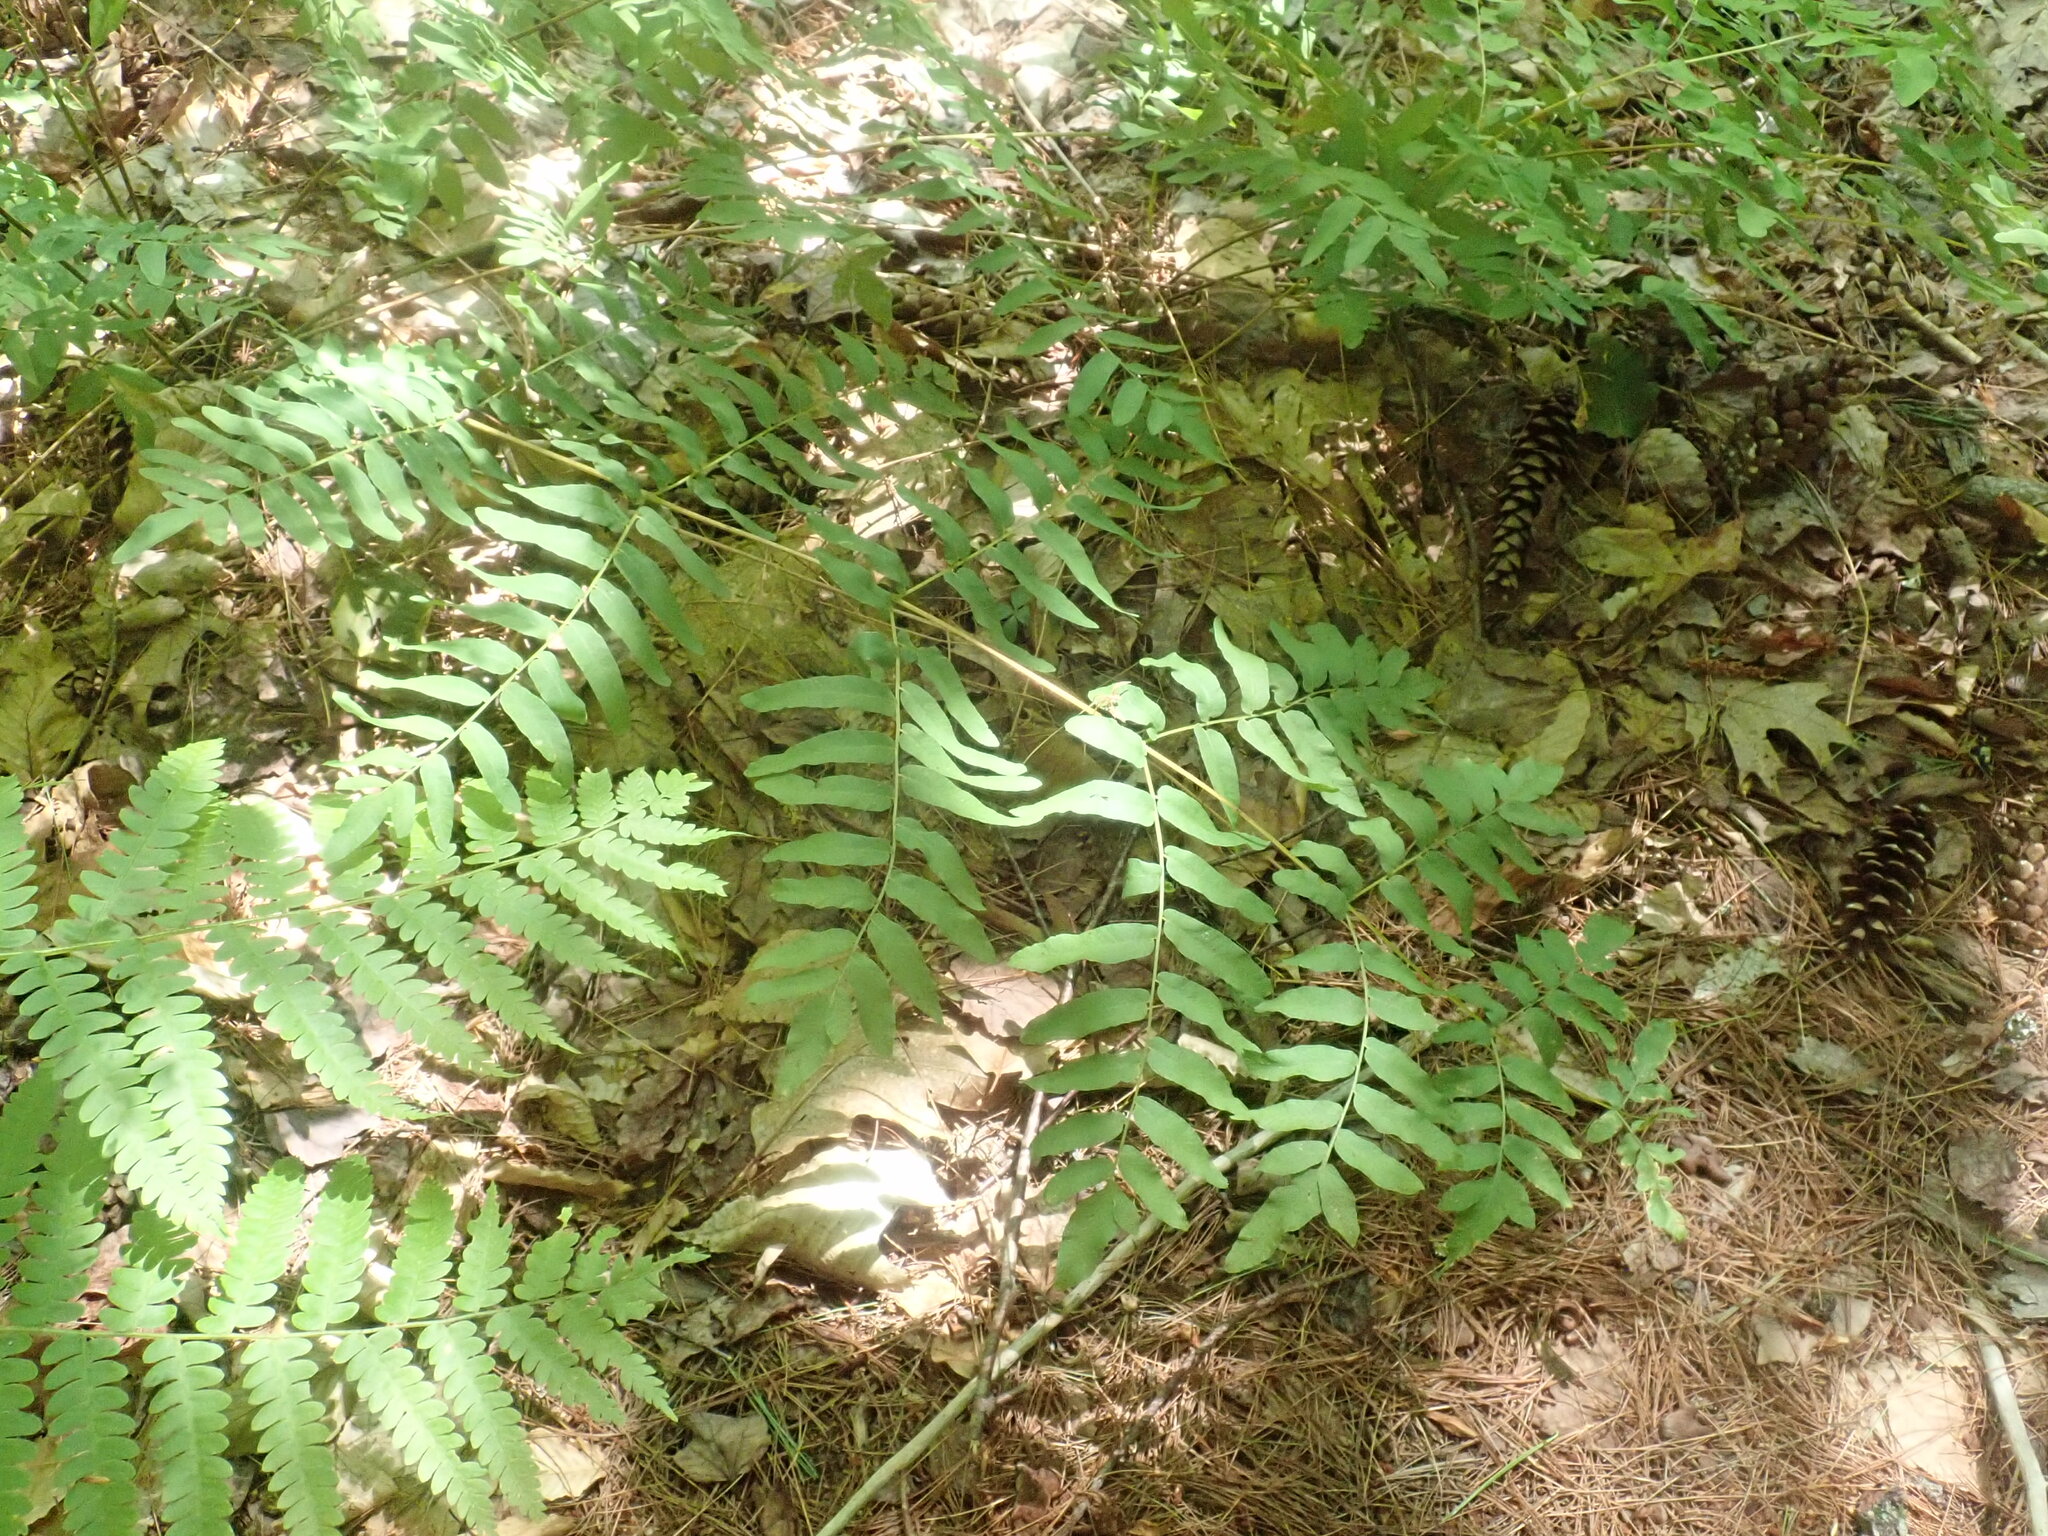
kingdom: Plantae
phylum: Tracheophyta
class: Polypodiopsida
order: Osmundales
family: Osmundaceae
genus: Osmunda
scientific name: Osmunda spectabilis
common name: American royal fern
